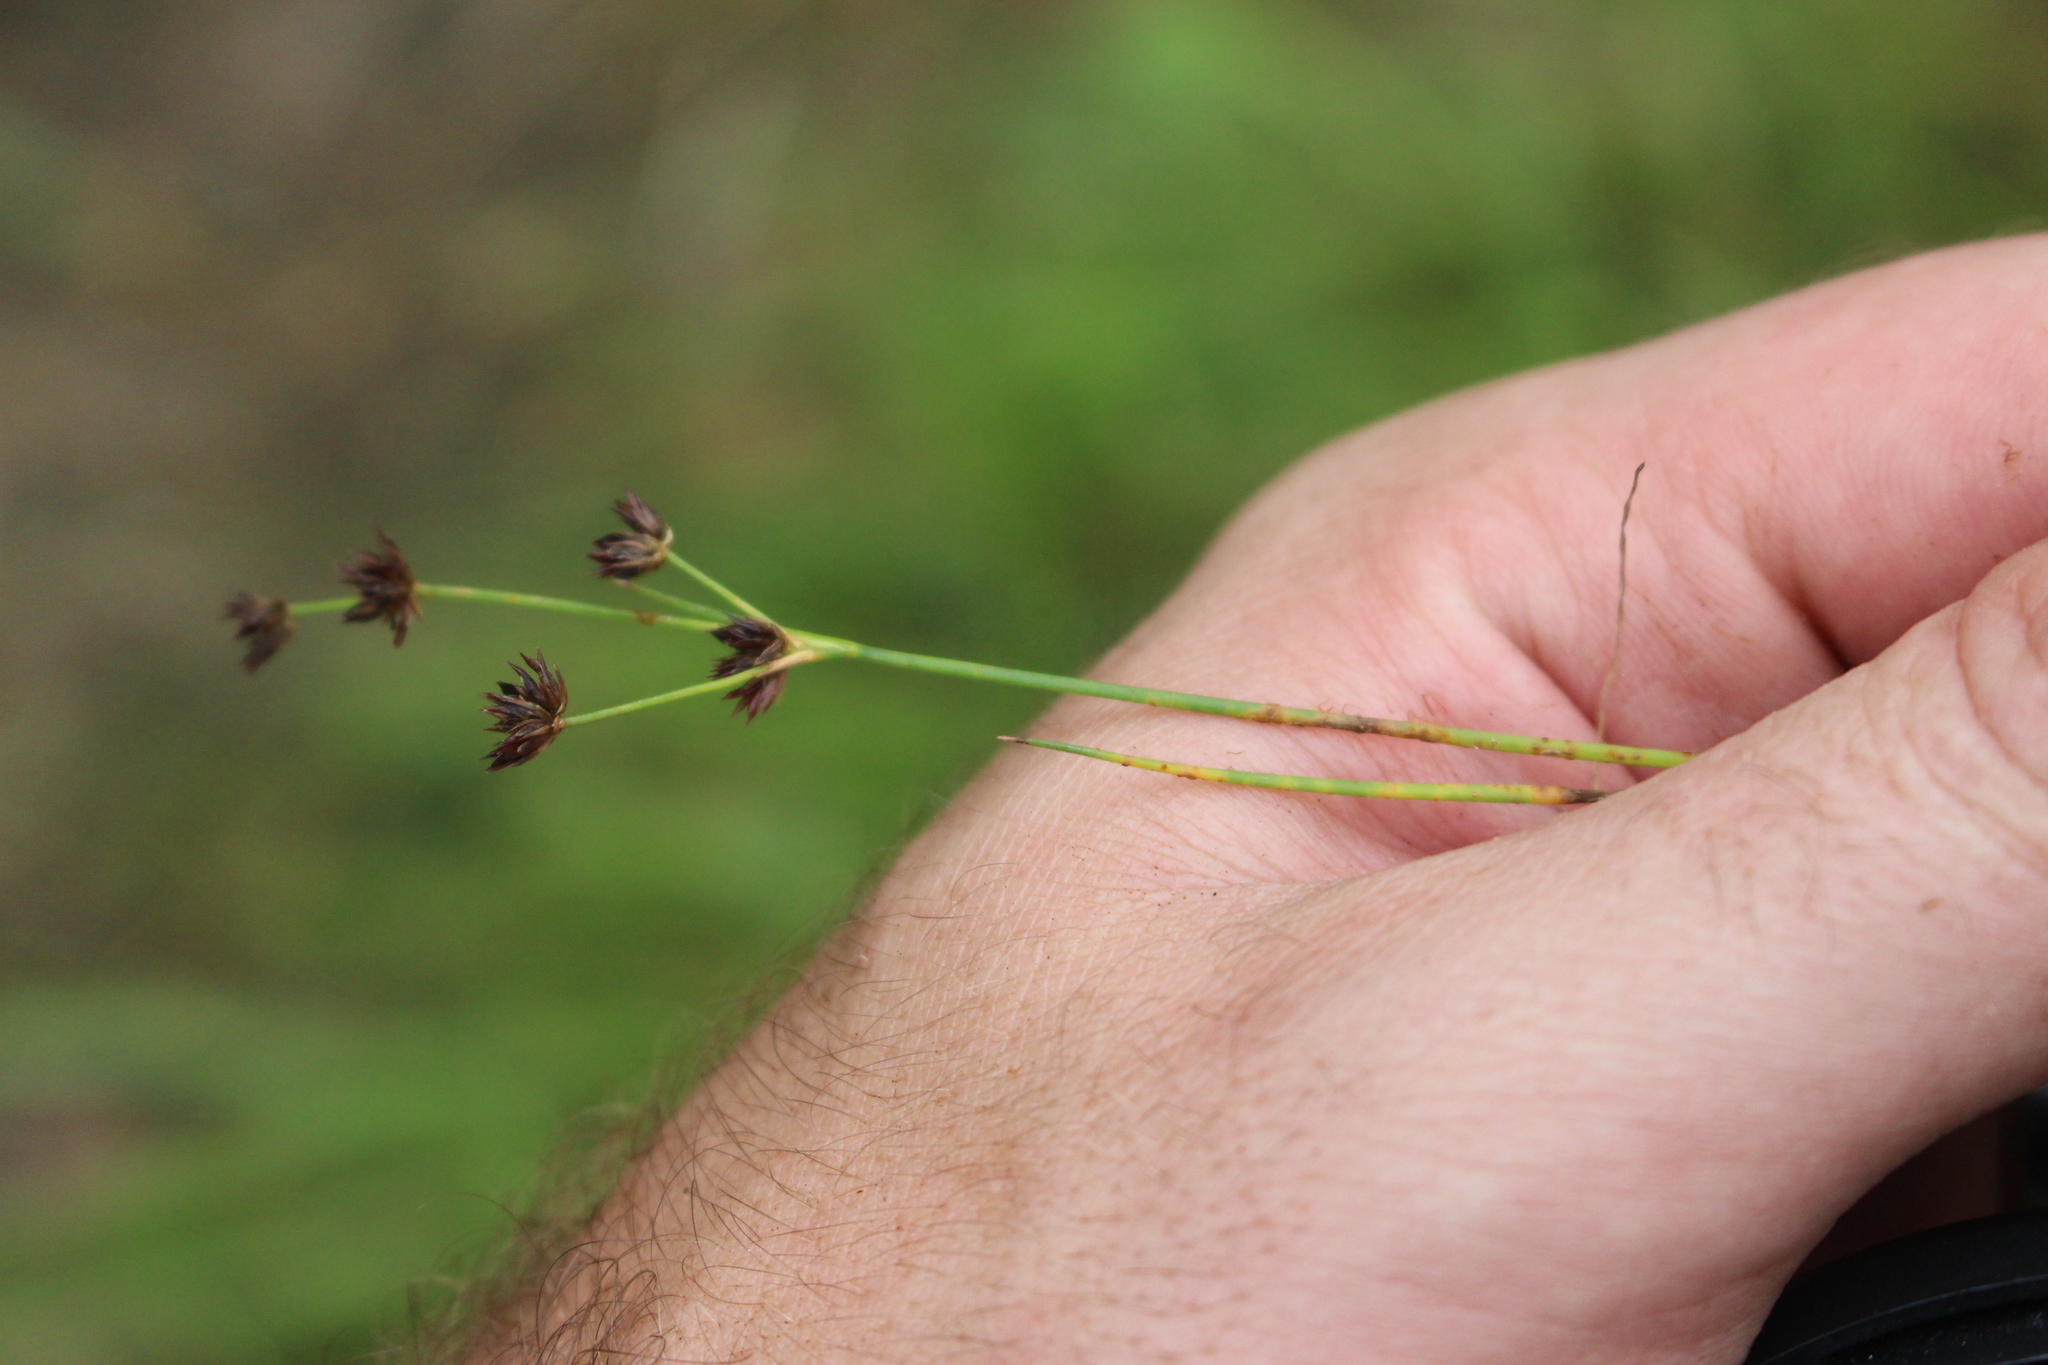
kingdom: Plantae
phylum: Tracheophyta
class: Liliopsida
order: Poales
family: Juncaceae
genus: Juncus
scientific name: Juncus articulatus
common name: Jointed rush
